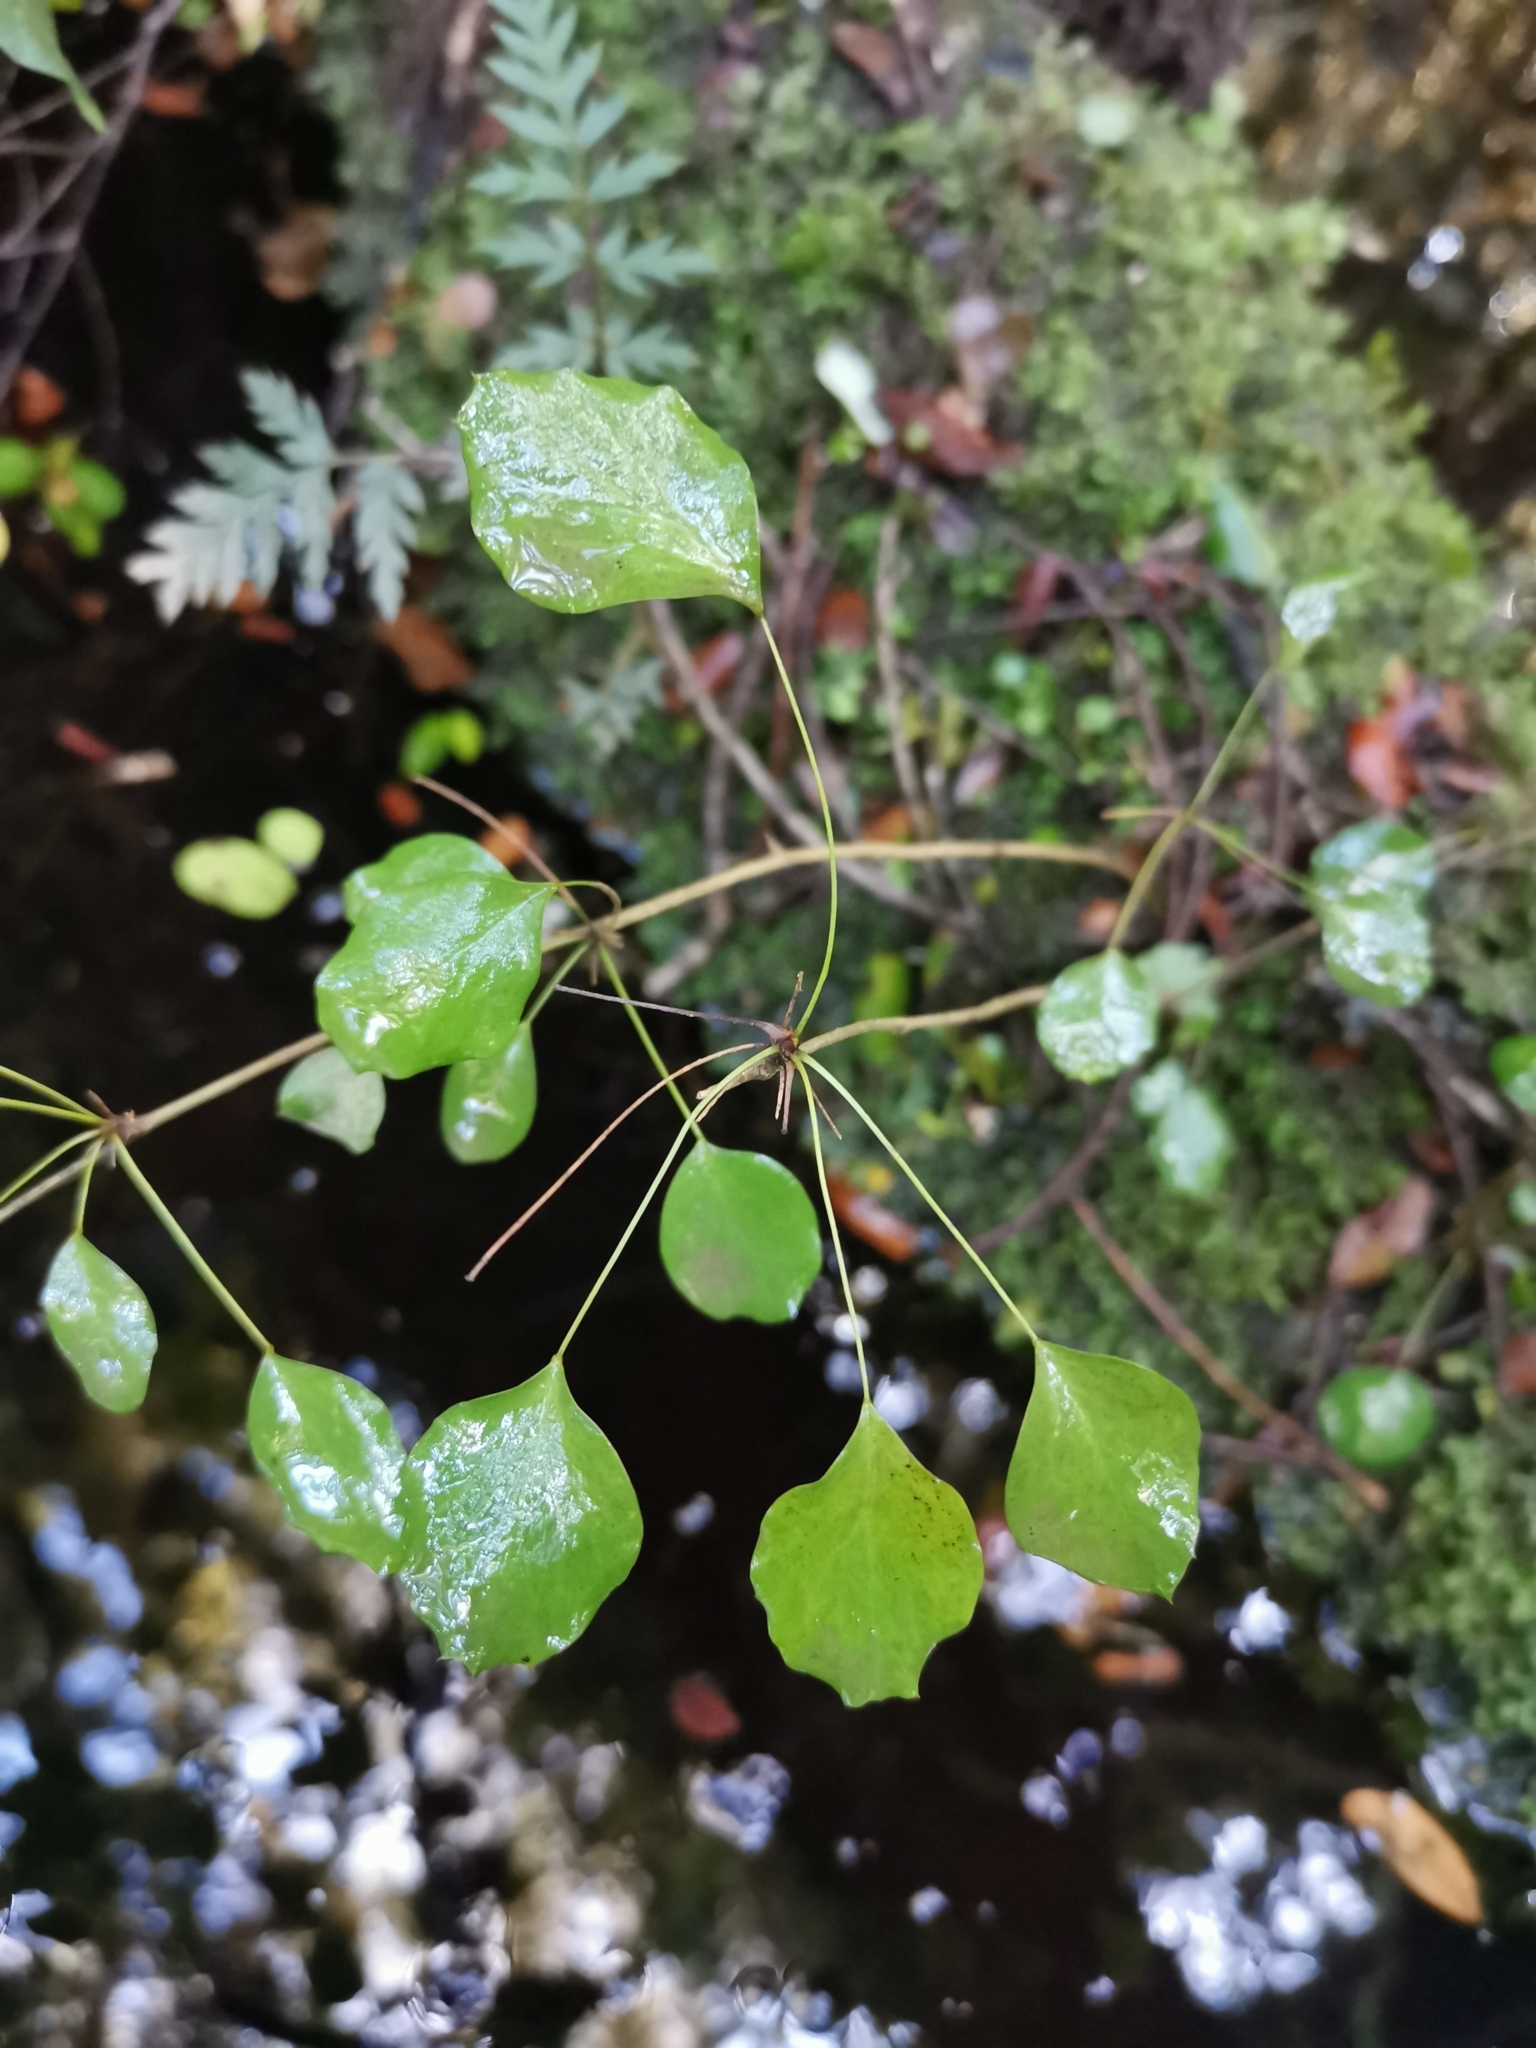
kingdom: Plantae
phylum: Tracheophyta
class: Magnoliopsida
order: Ranunculales
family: Berberidaceae
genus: Berberis
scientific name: Berberis rotundifolia
